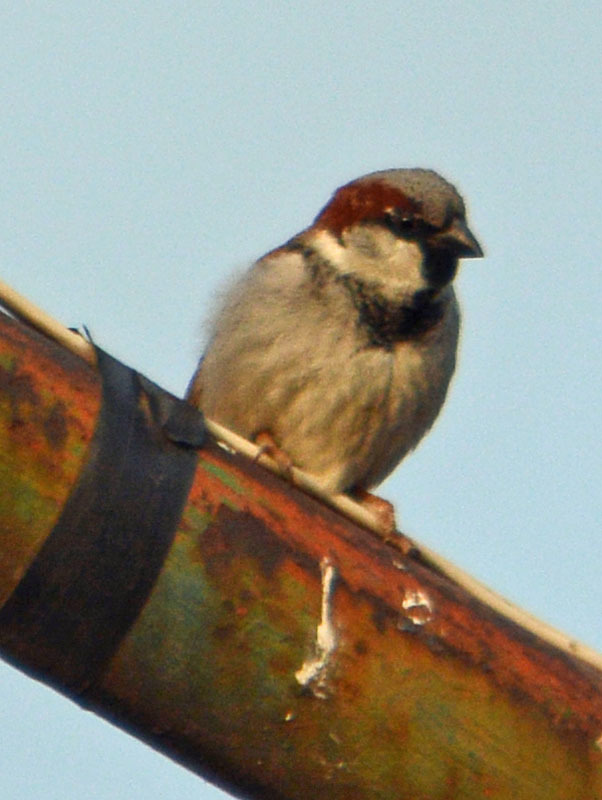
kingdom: Animalia
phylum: Chordata
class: Aves
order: Passeriformes
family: Passeridae
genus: Passer
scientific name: Passer domesticus
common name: House sparrow
